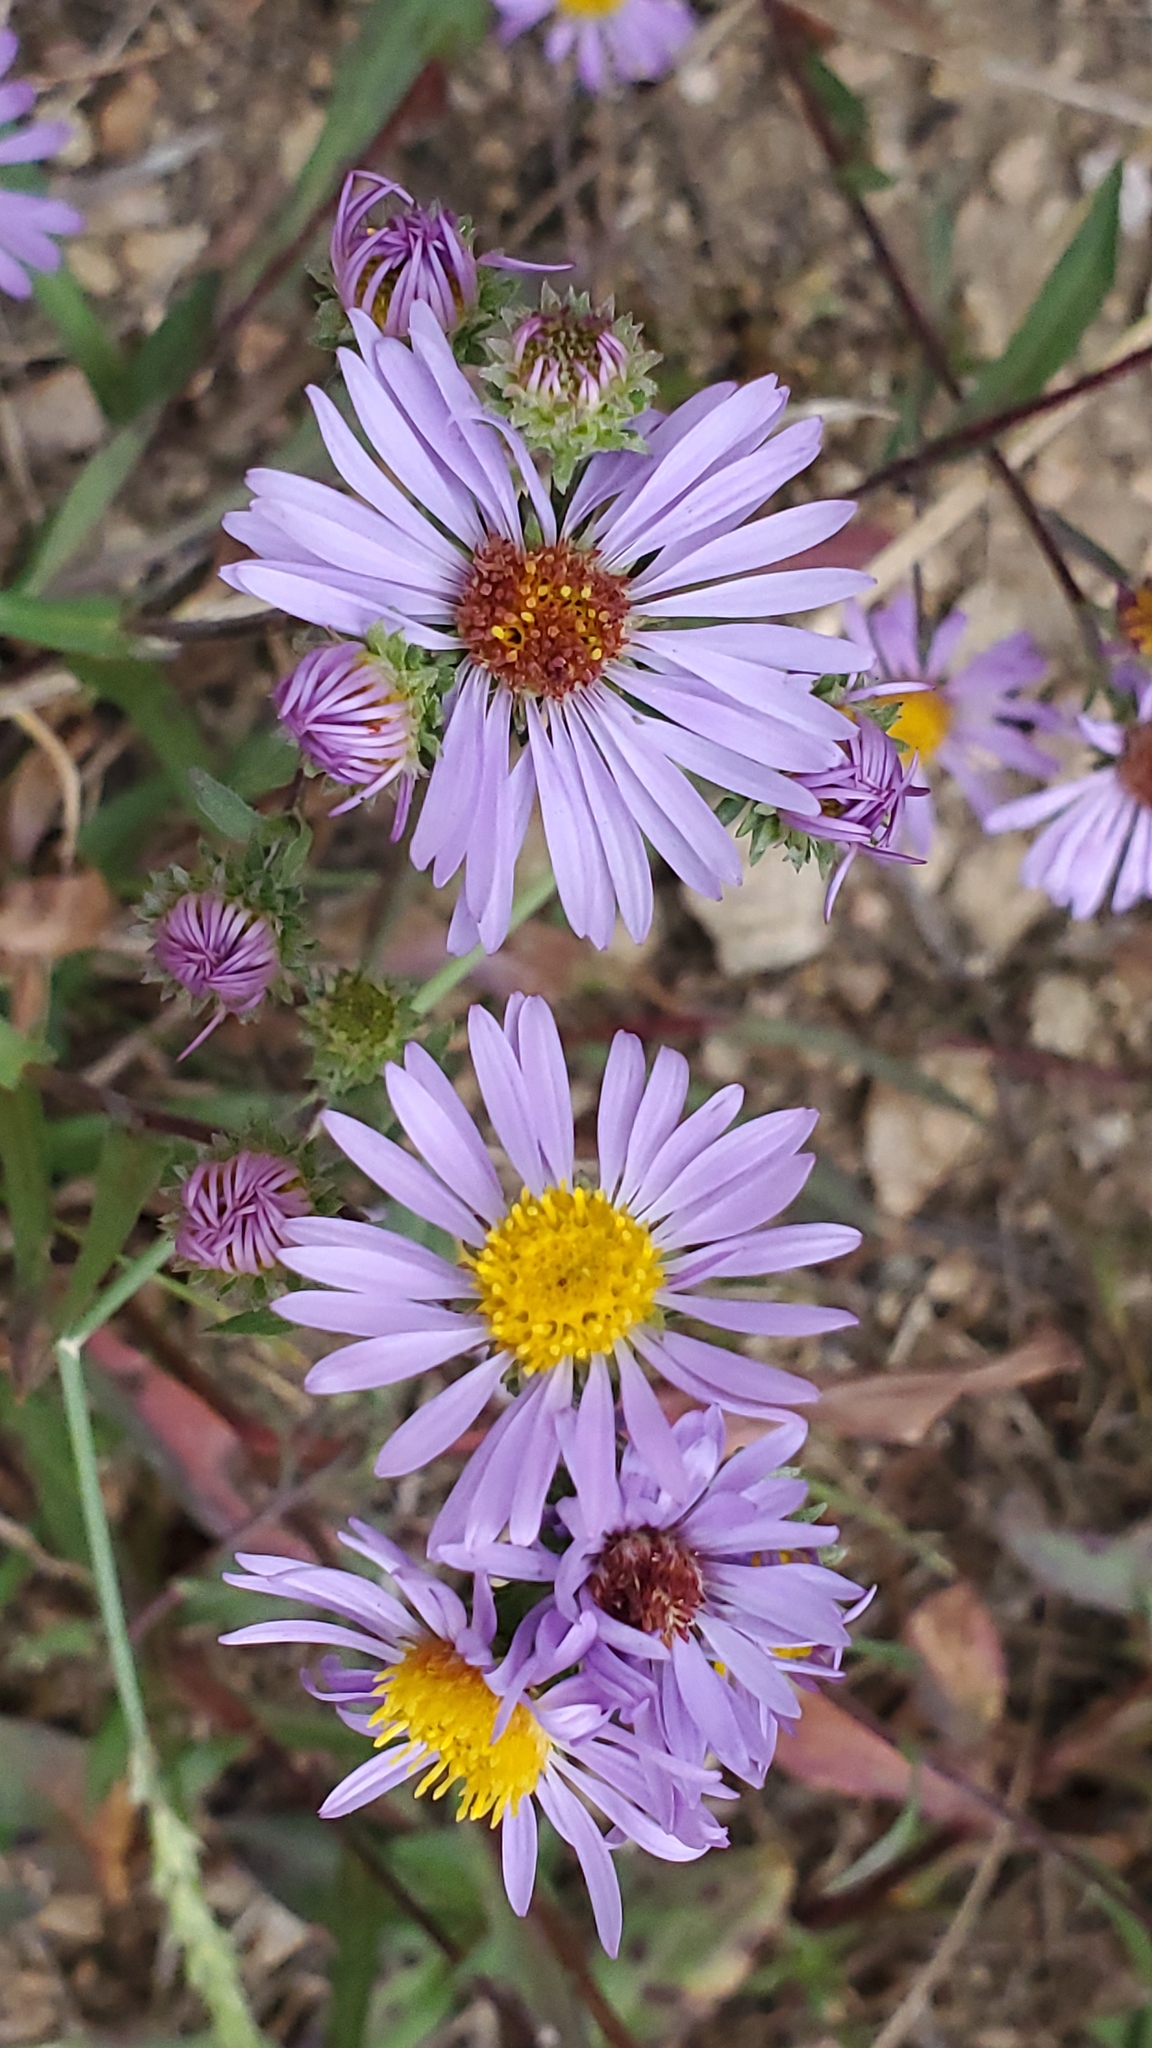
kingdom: Plantae
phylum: Tracheophyta
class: Magnoliopsida
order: Asterales
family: Asteraceae
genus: Symphyotrichum
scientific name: Symphyotrichum foliaceum
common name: Leafy aster
